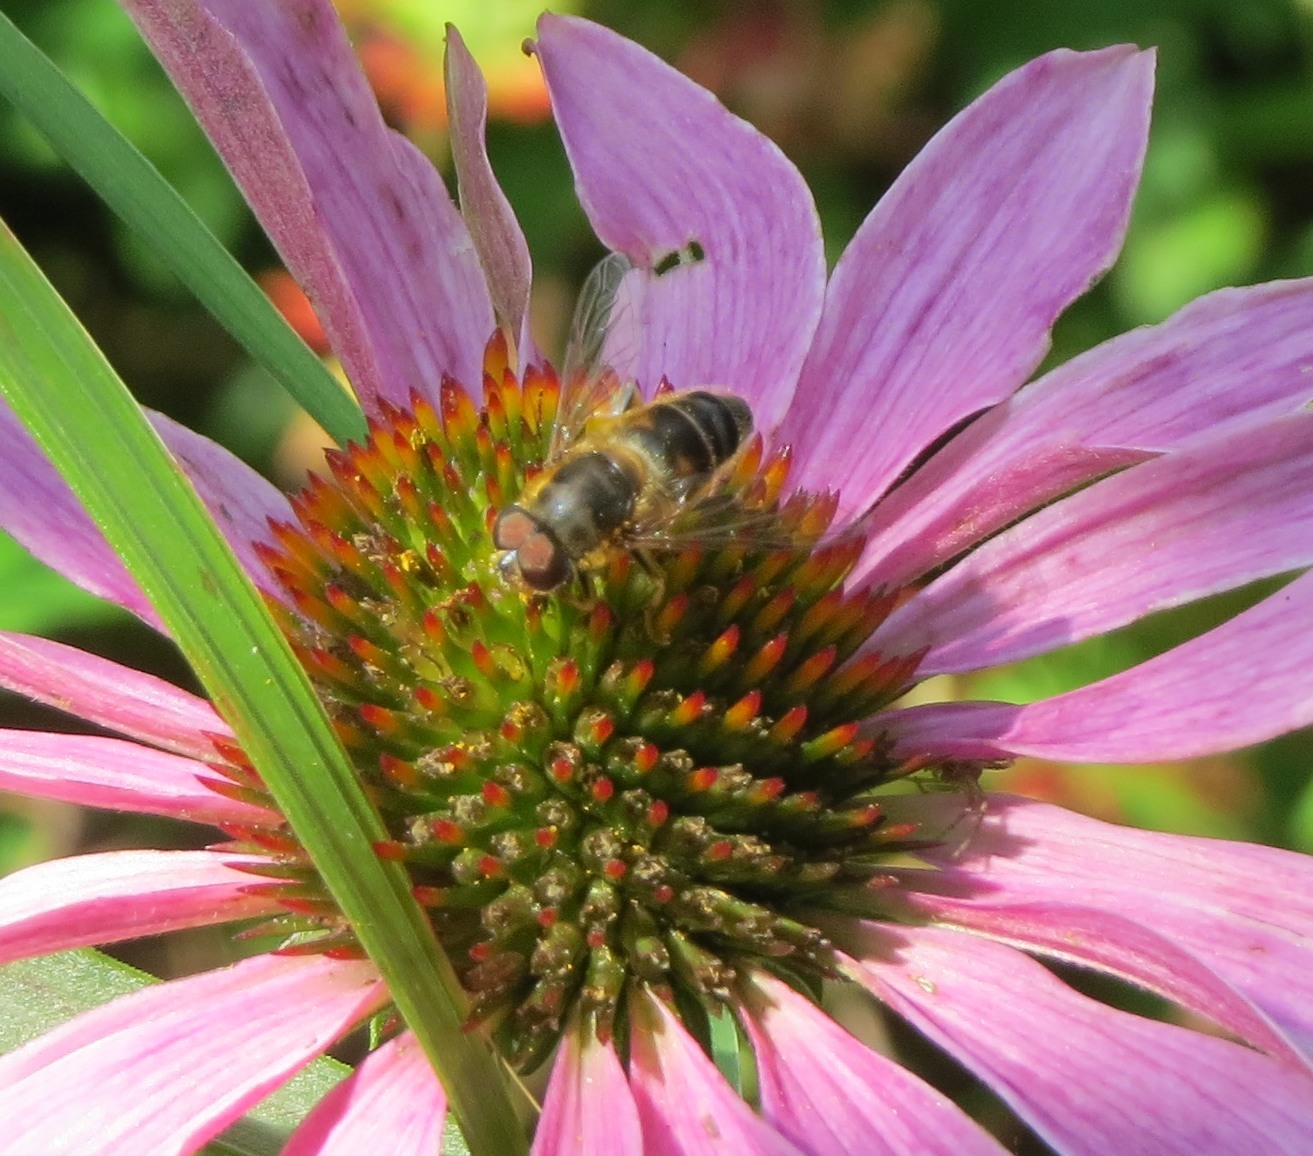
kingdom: Animalia
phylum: Arthropoda
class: Insecta
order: Diptera
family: Syrphidae
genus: Eristalis
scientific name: Eristalis pertinax
